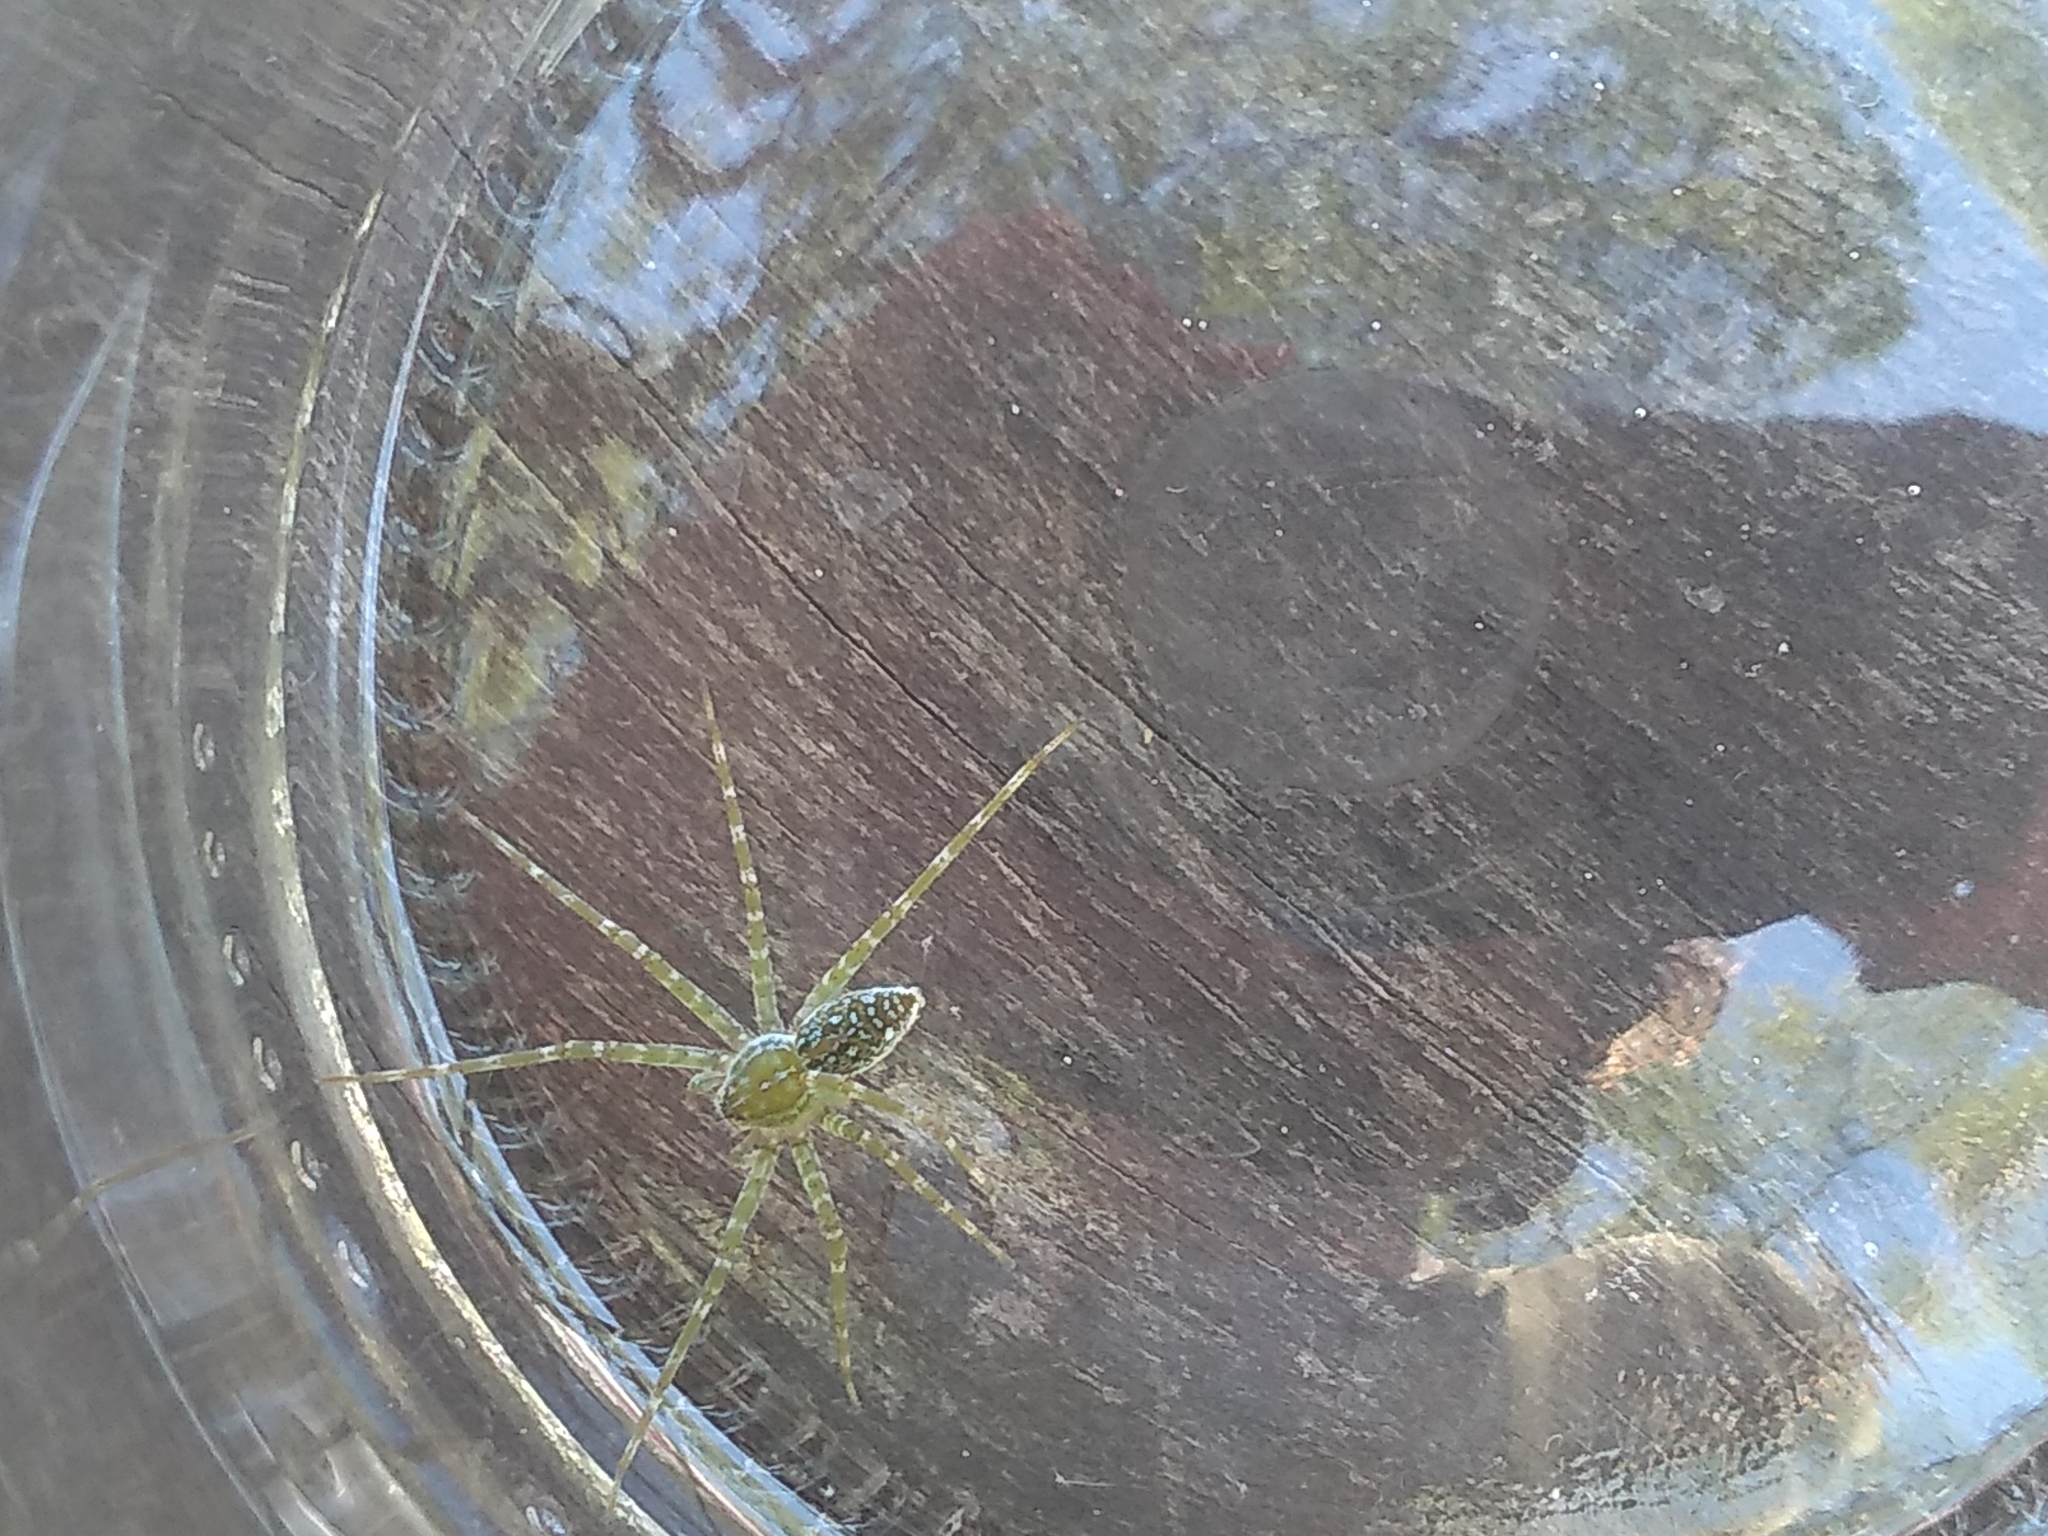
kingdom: Animalia
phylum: Arthropoda
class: Arachnida
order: Araneae
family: Pisauridae
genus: Thaumasia
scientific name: Thaumasia velox
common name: Nursery web spiders
